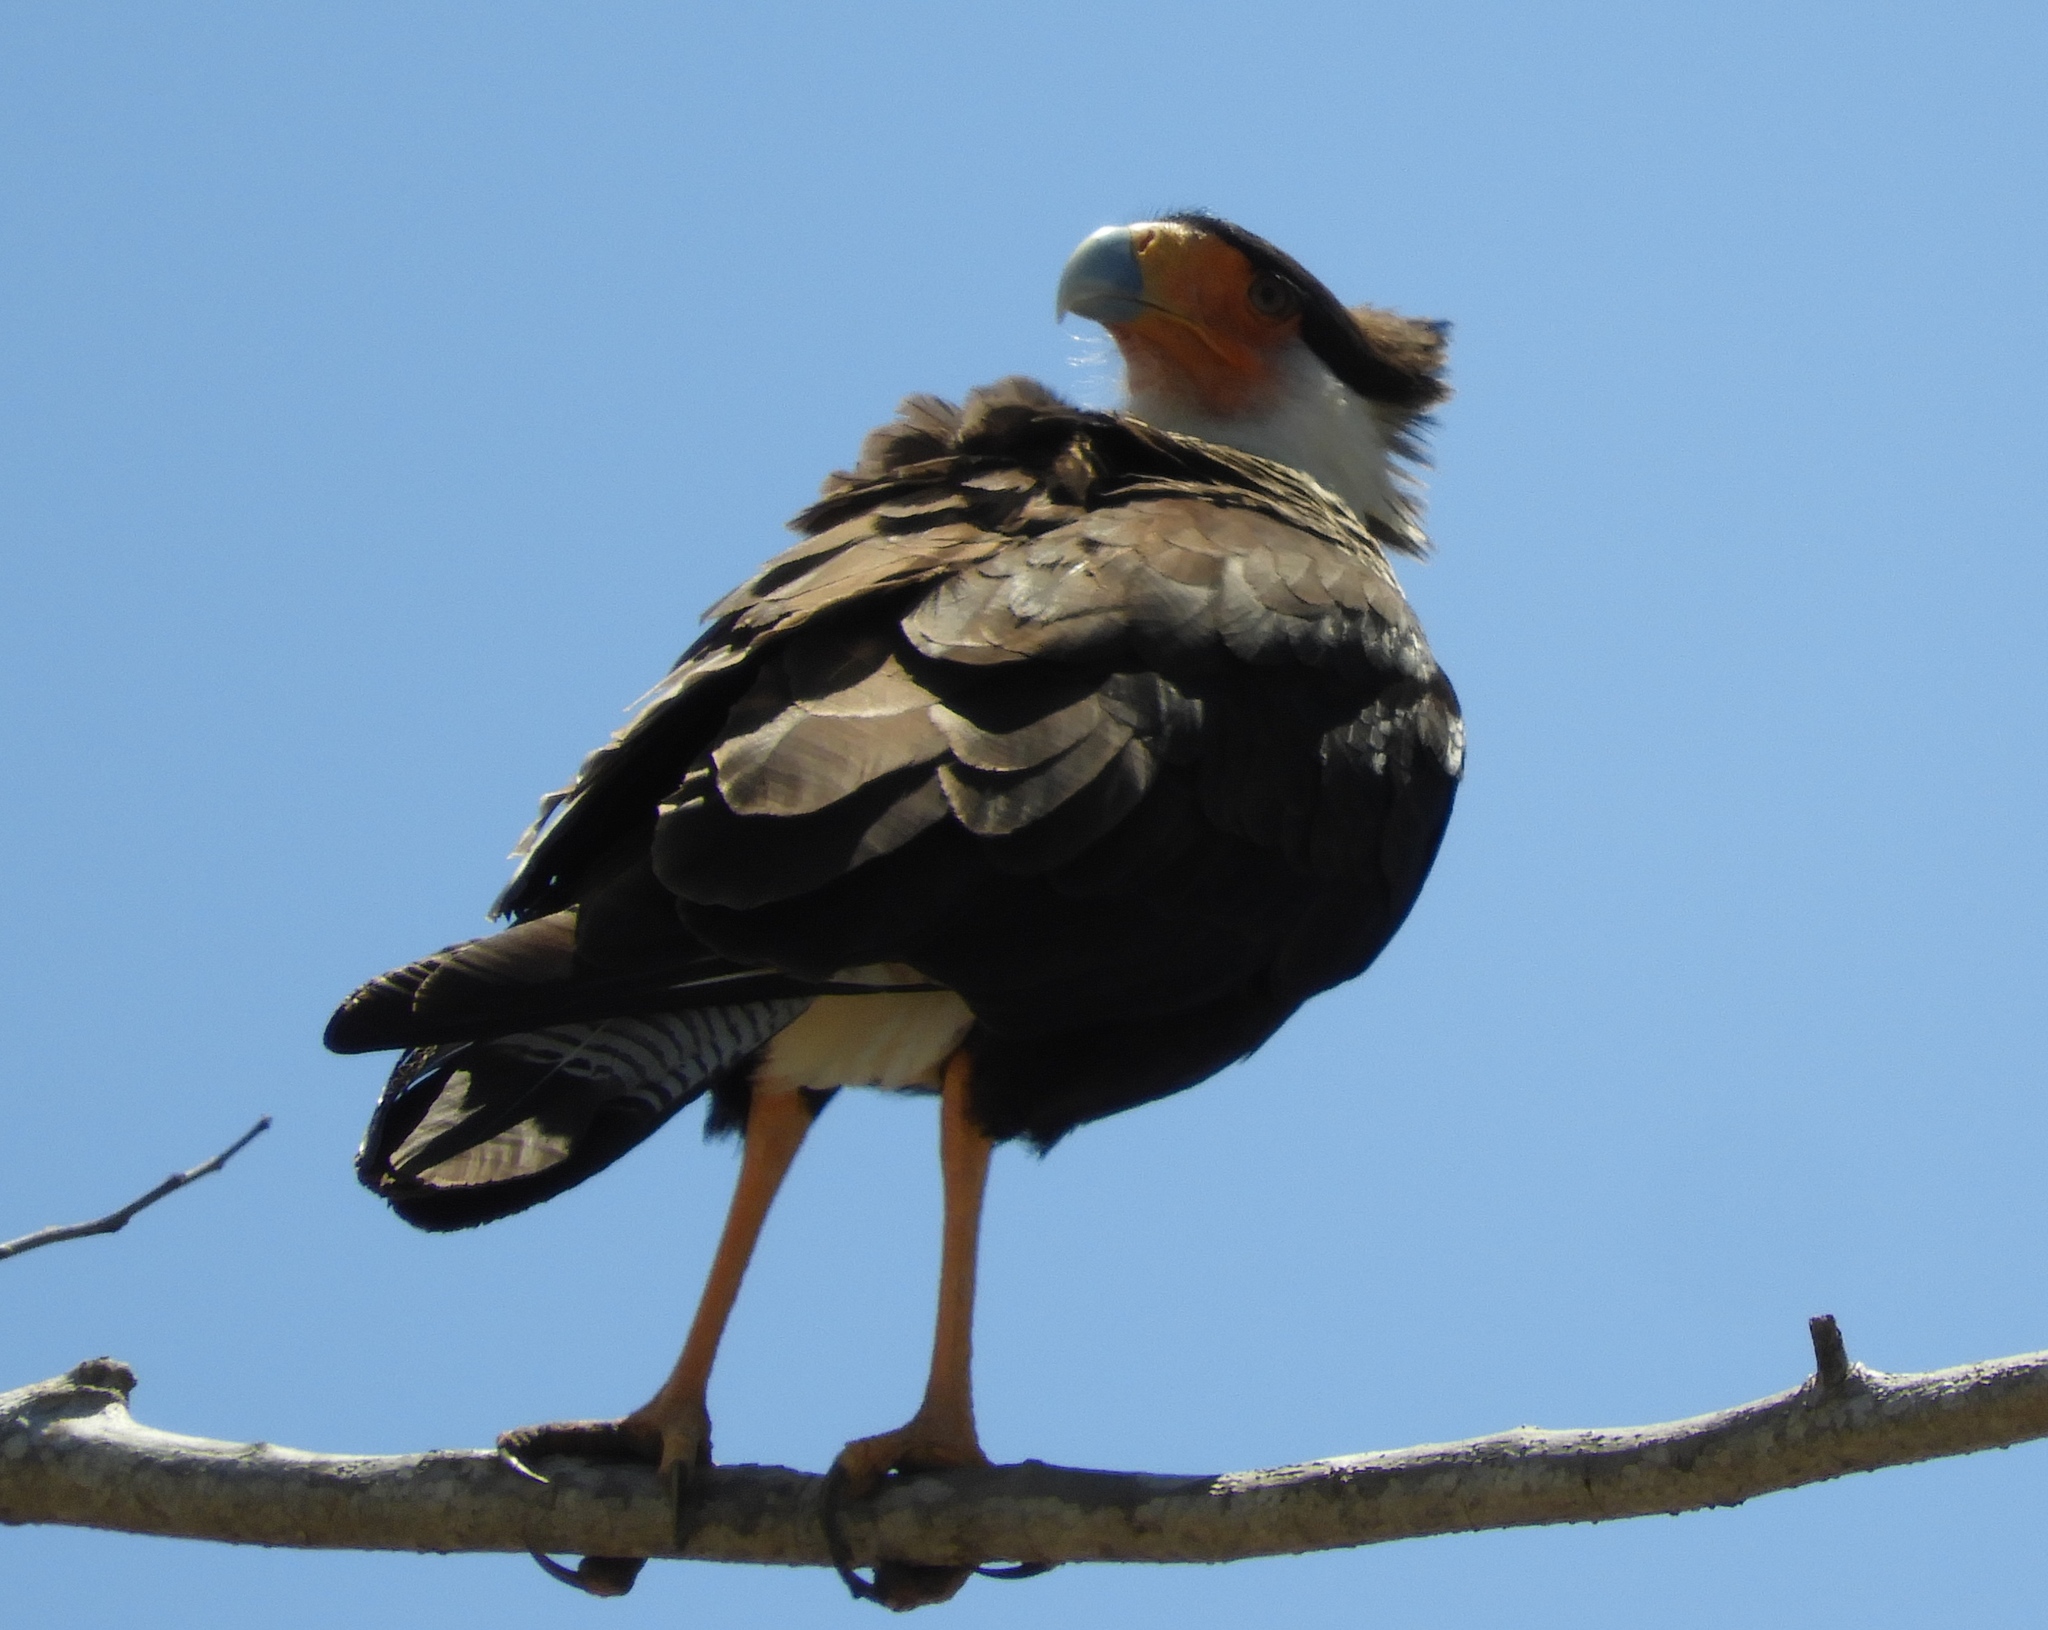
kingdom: Animalia
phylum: Chordata
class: Aves
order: Falconiformes
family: Falconidae
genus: Caracara
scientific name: Caracara plancus
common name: Southern caracara
